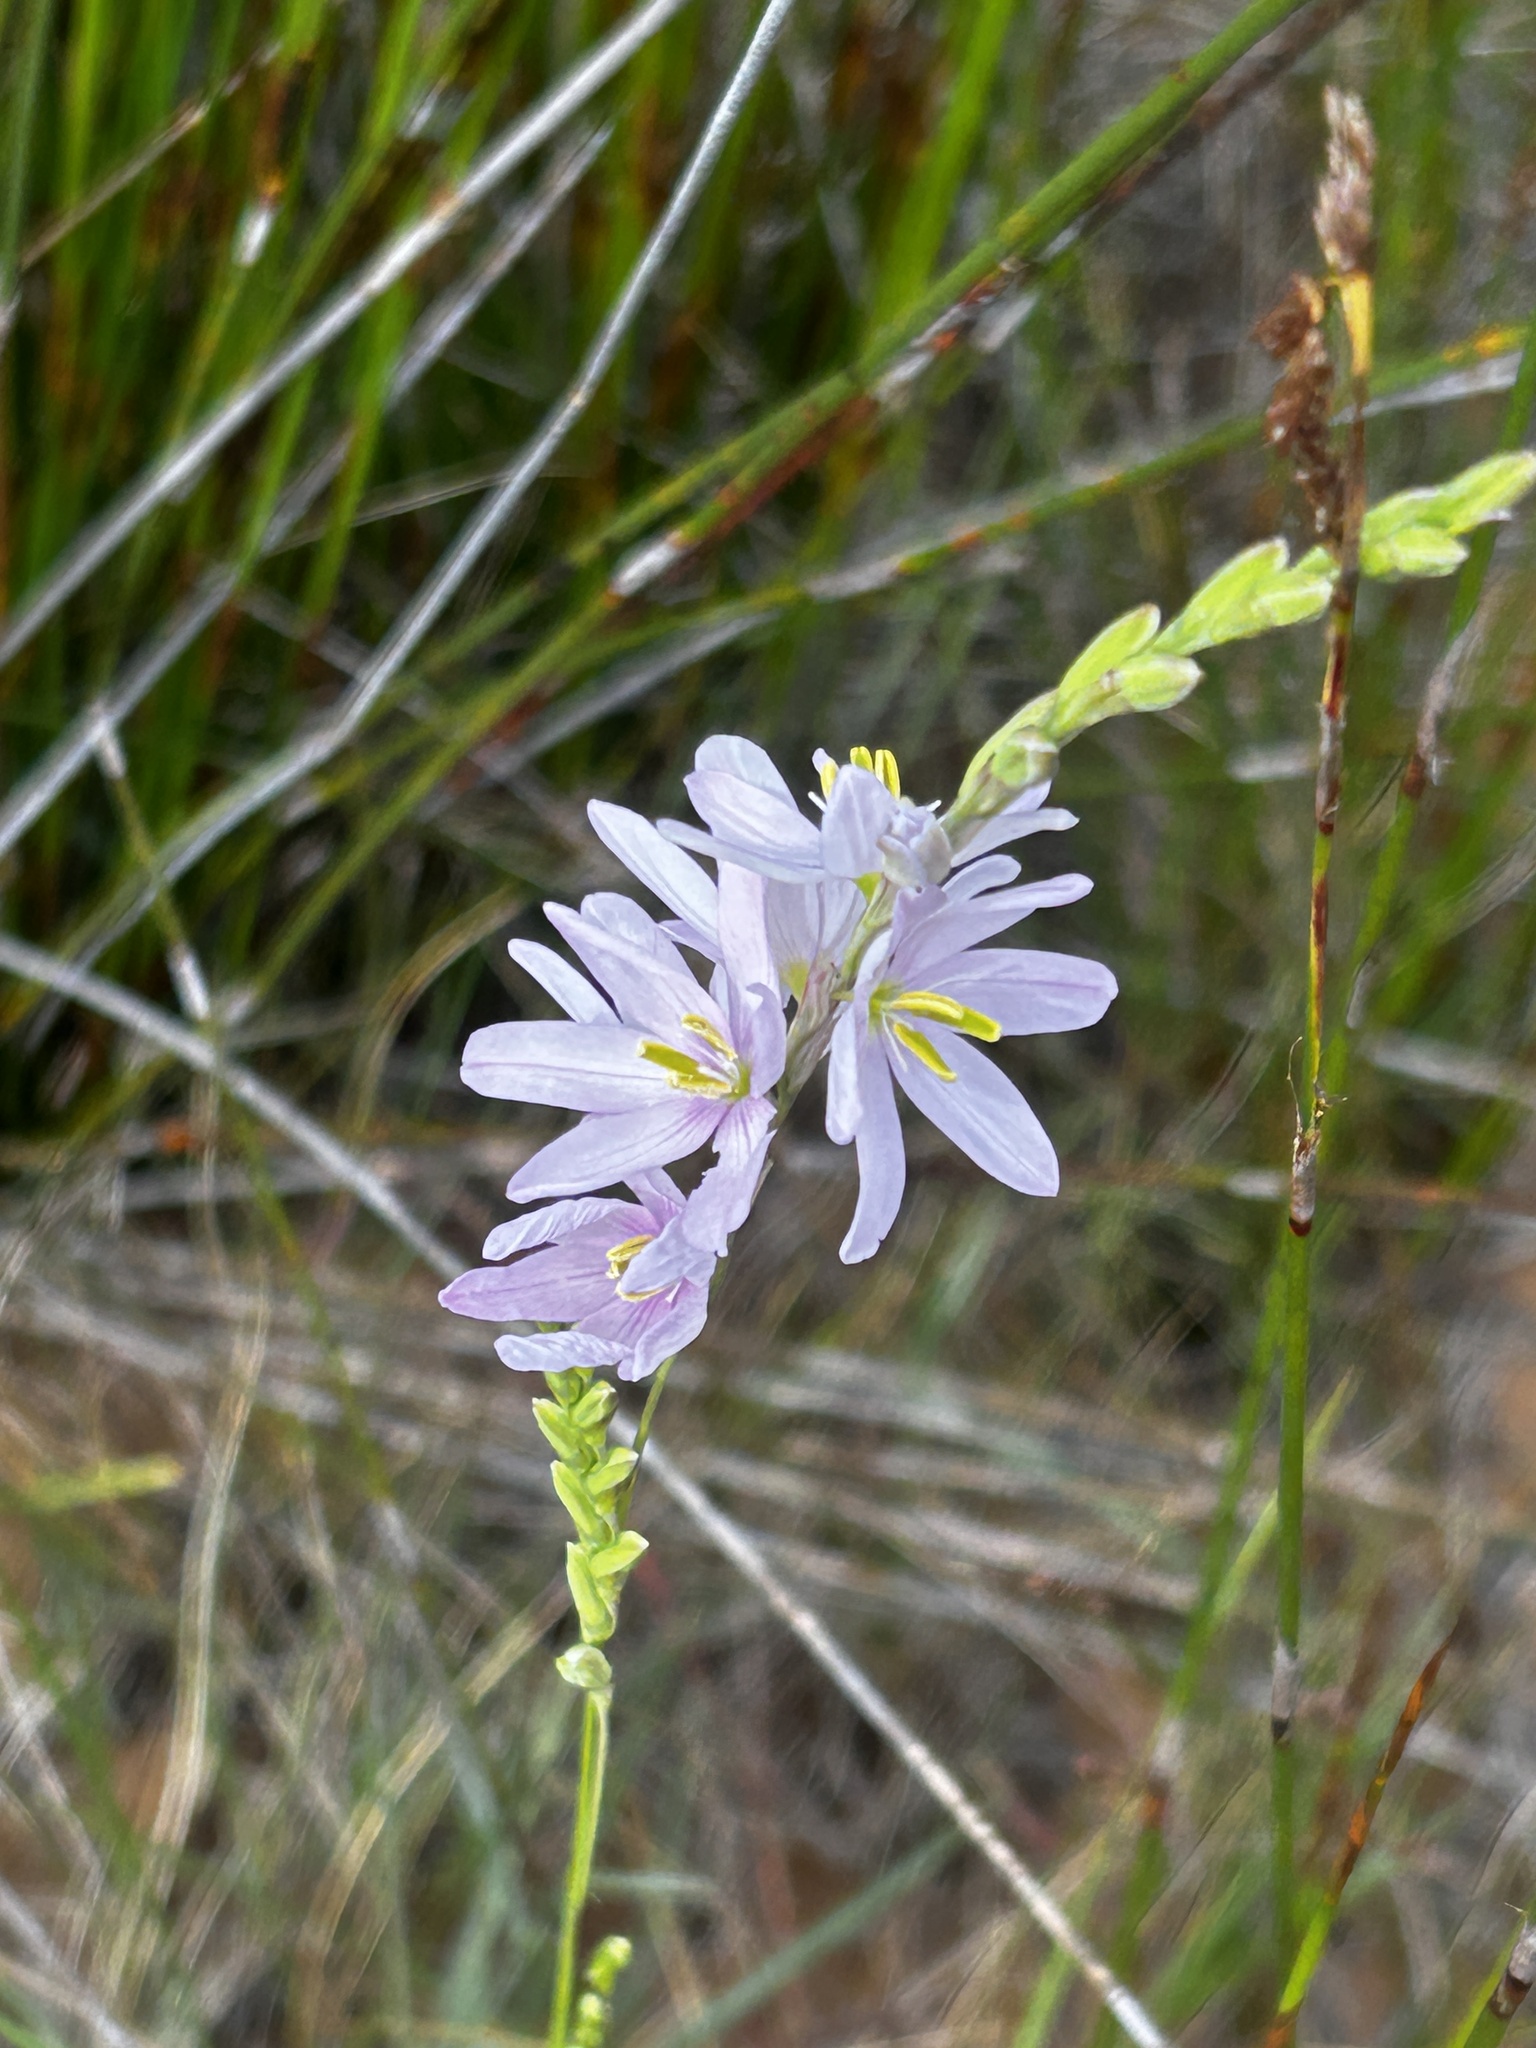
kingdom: Plantae
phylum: Tracheophyta
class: Liliopsida
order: Asparagales
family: Iridaceae
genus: Ixia
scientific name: Ixia flexuosa
